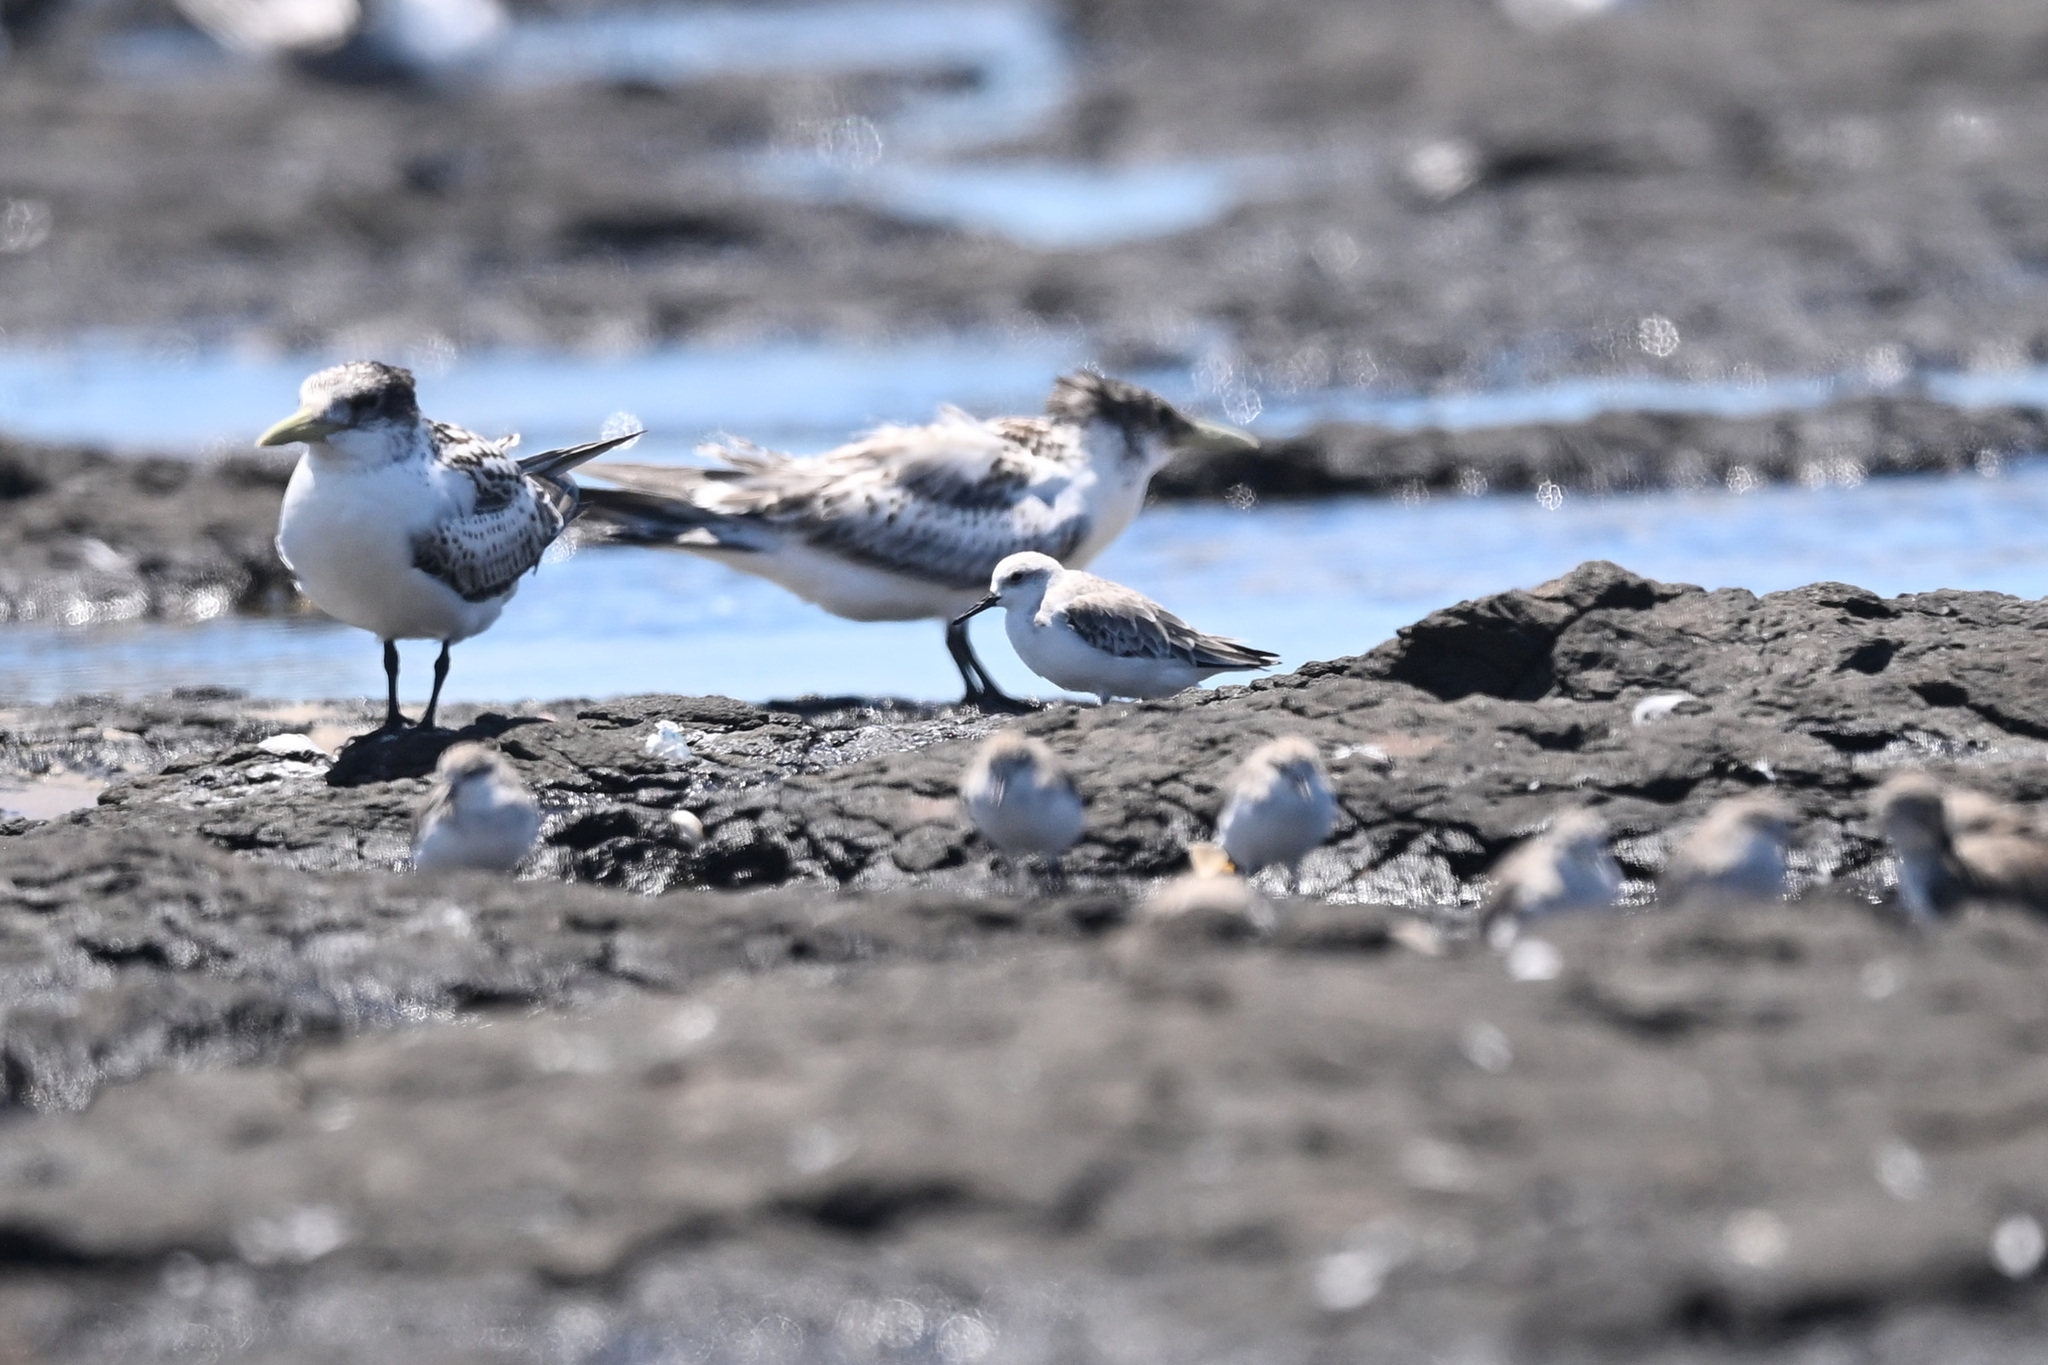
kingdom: Animalia
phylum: Chordata
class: Aves
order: Charadriiformes
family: Scolopacidae
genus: Calidris
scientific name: Calidris alba
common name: Sanderling
